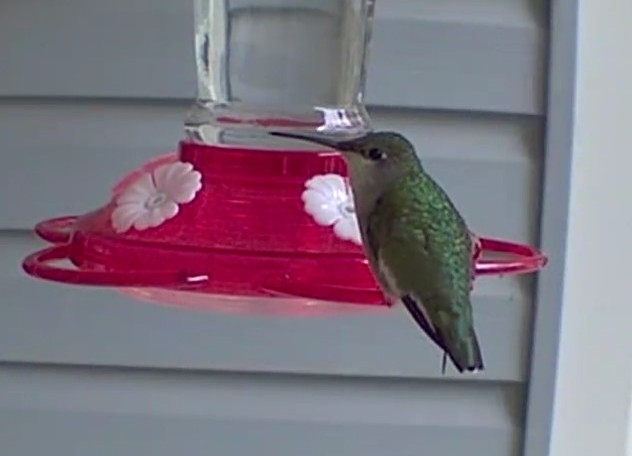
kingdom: Animalia
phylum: Chordata
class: Aves
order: Apodiformes
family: Trochilidae
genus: Archilochus
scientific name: Archilochus colubris
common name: Ruby-throated hummingbird
